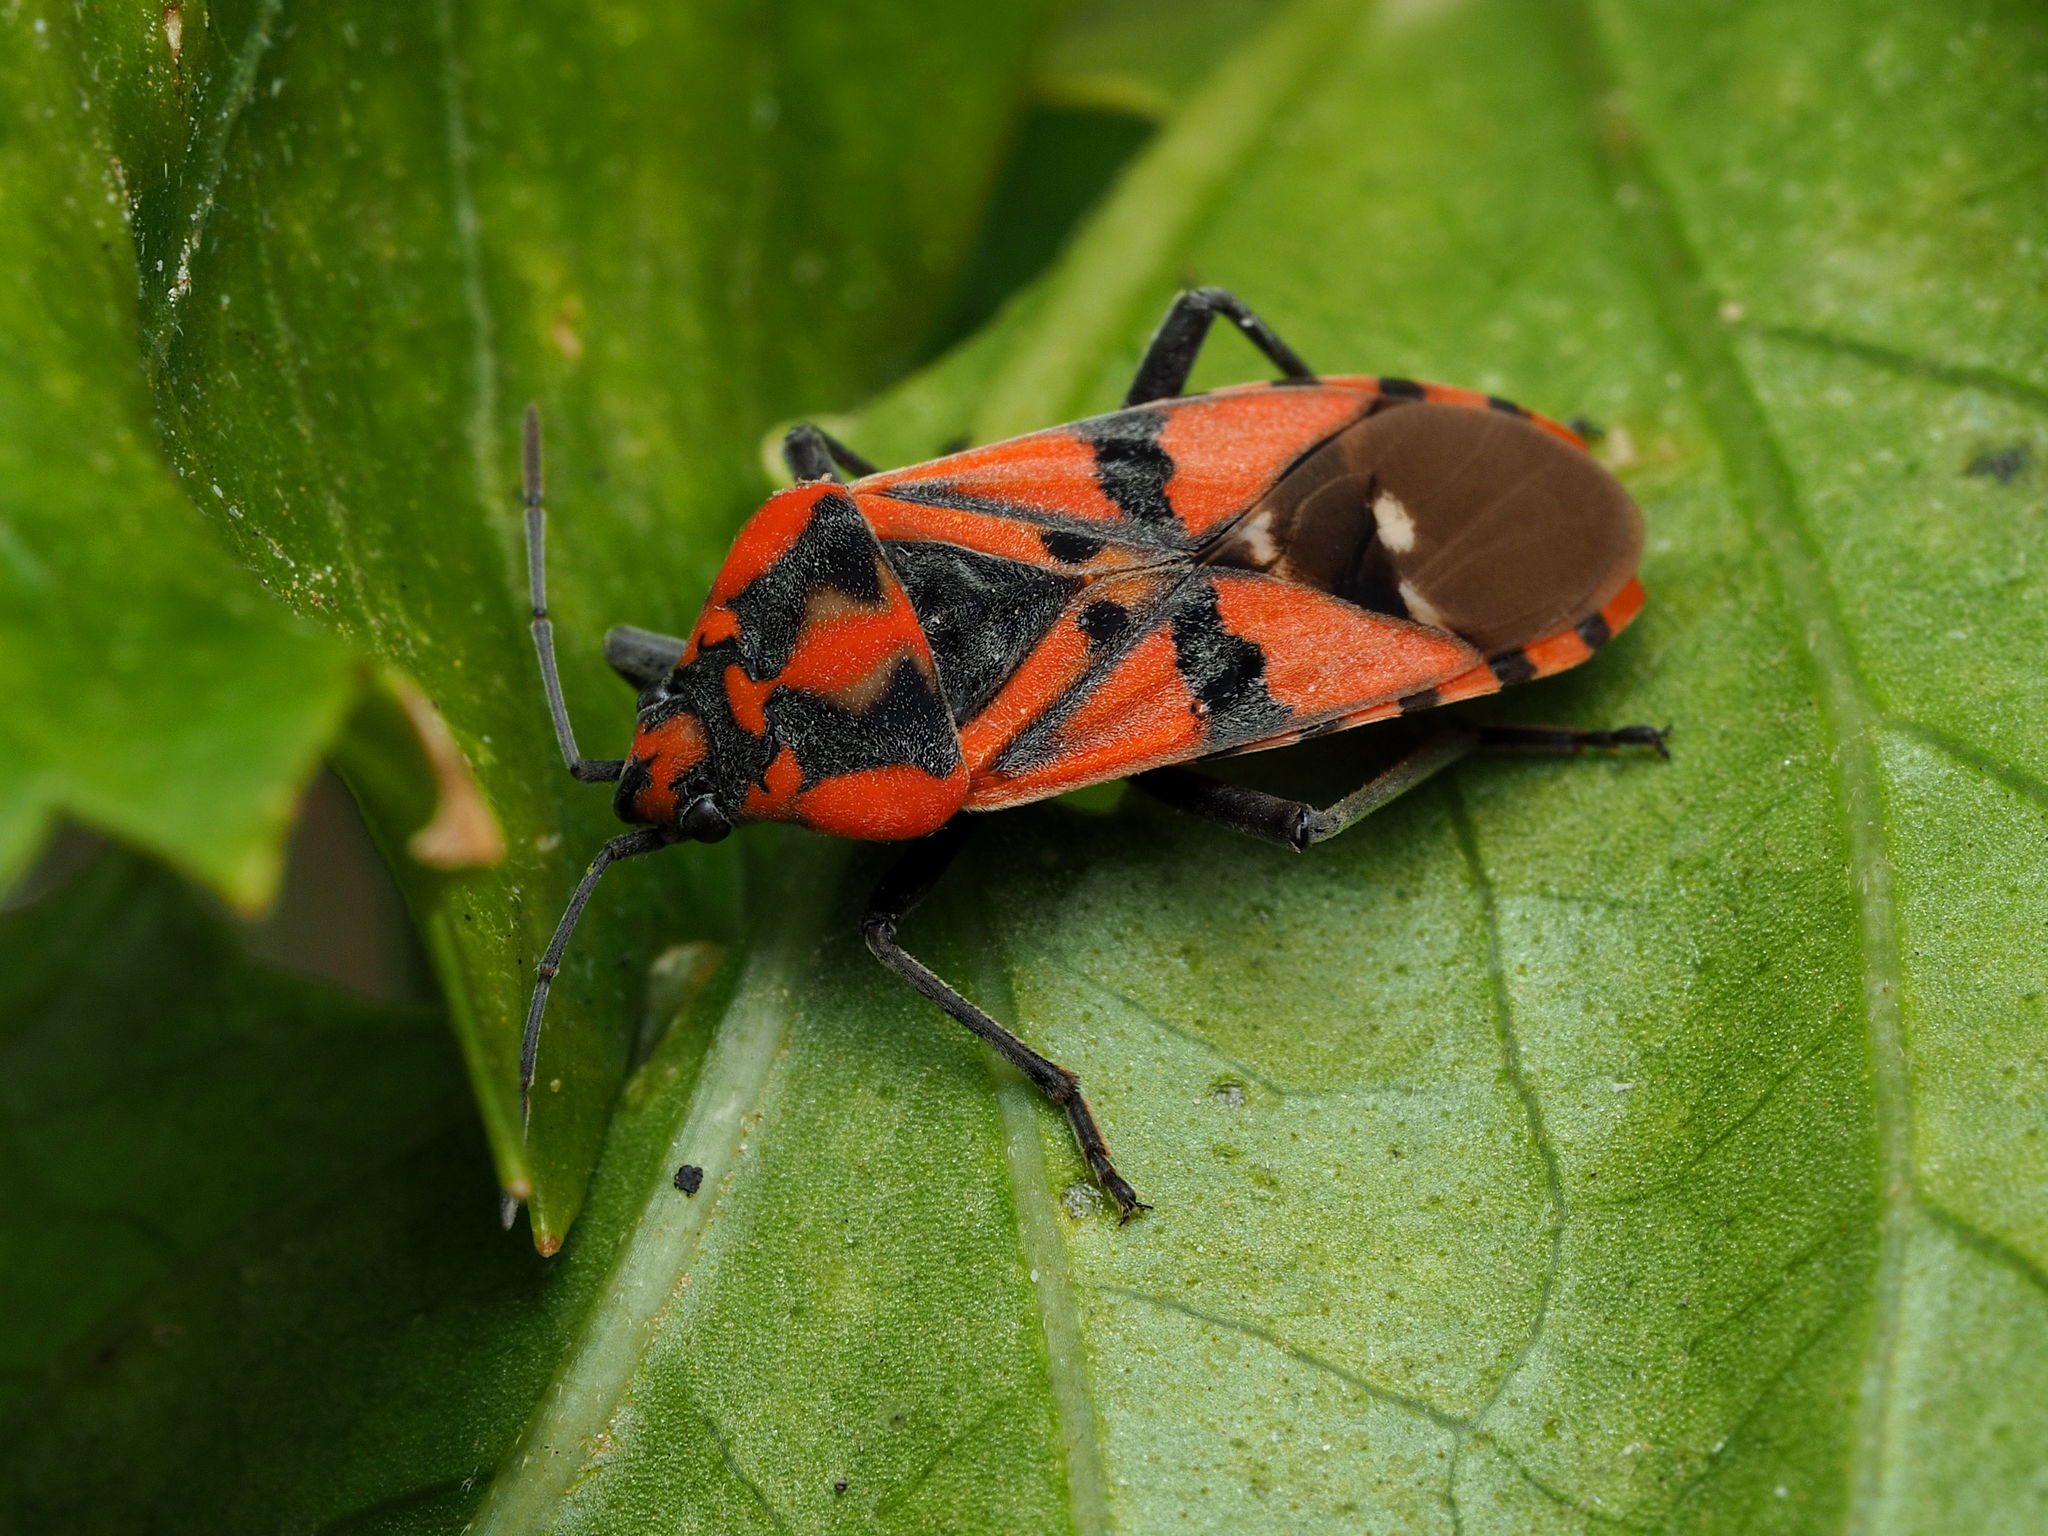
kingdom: Animalia
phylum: Arthropoda
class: Insecta
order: Hemiptera
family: Lygaeidae
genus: Spilostethus
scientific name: Spilostethus pandurus
